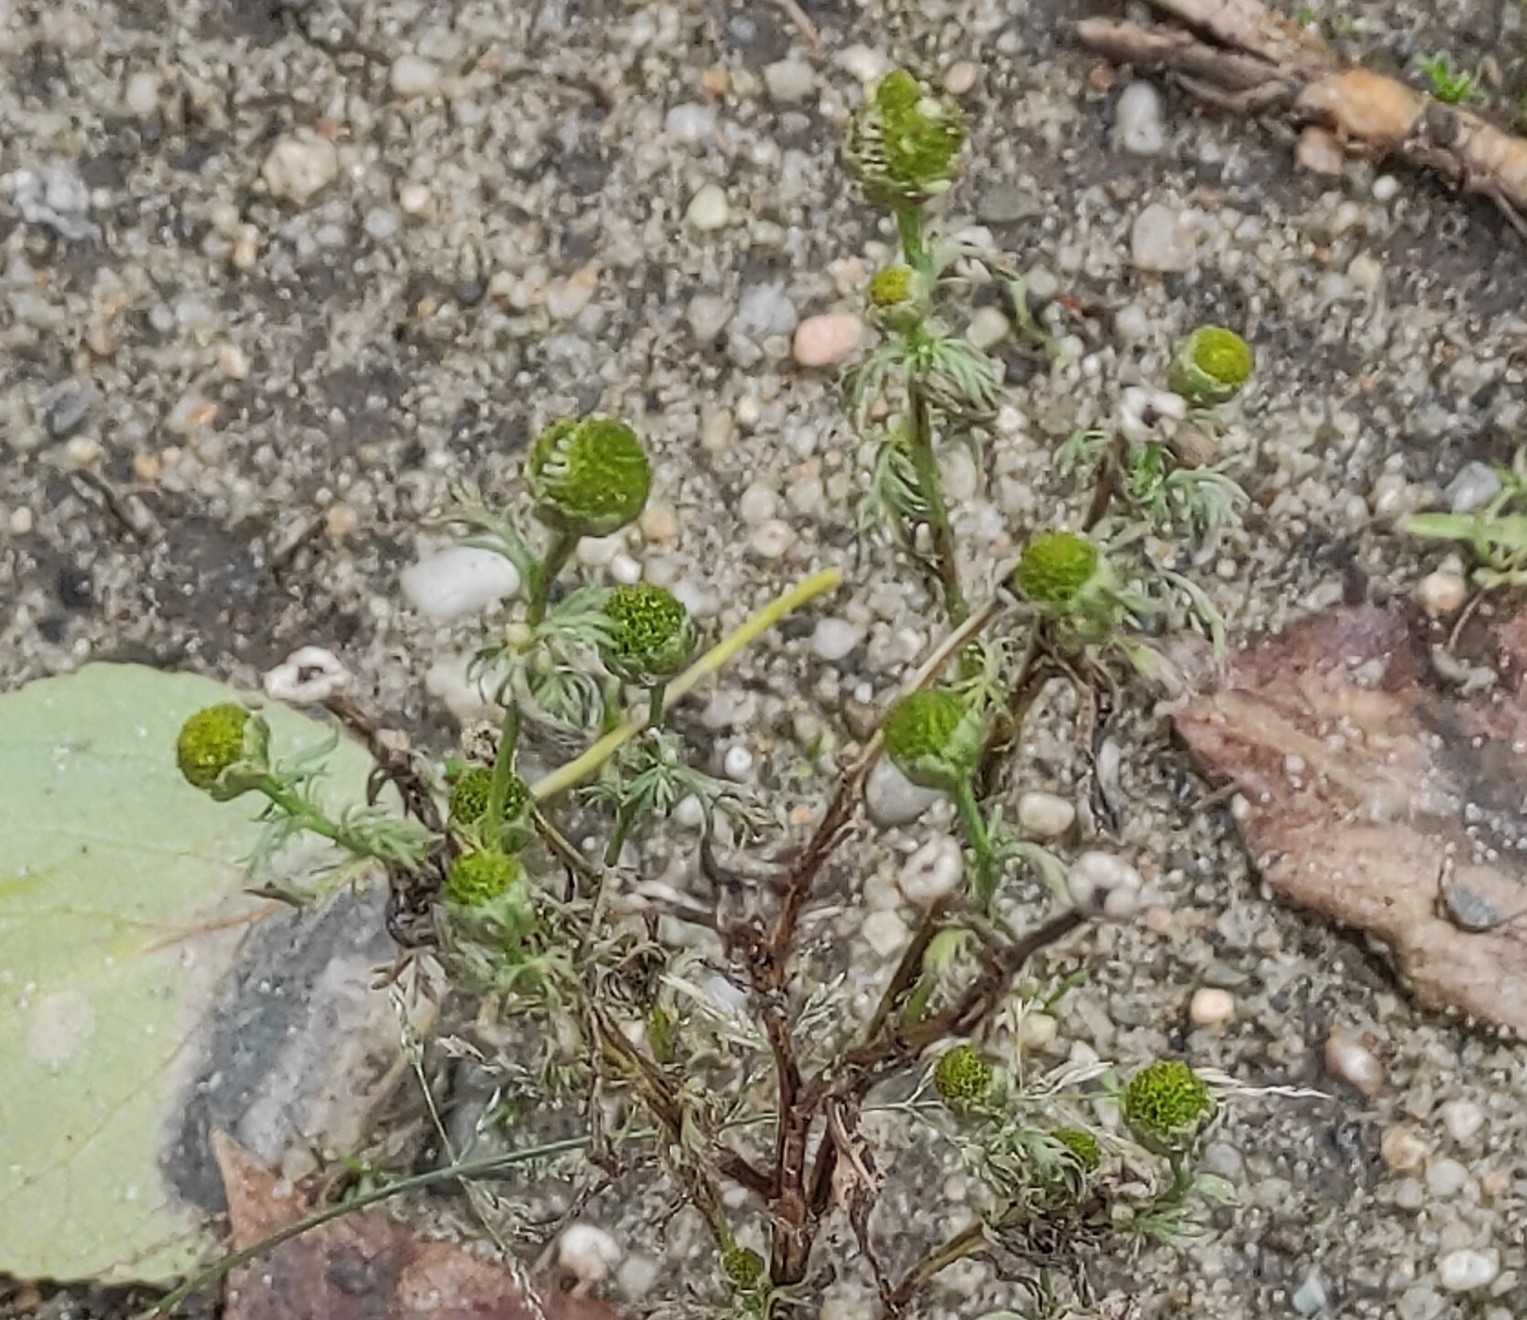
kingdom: Plantae
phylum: Tracheophyta
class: Magnoliopsida
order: Asterales
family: Asteraceae
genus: Matricaria
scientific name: Matricaria discoidea
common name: Disc mayweed
